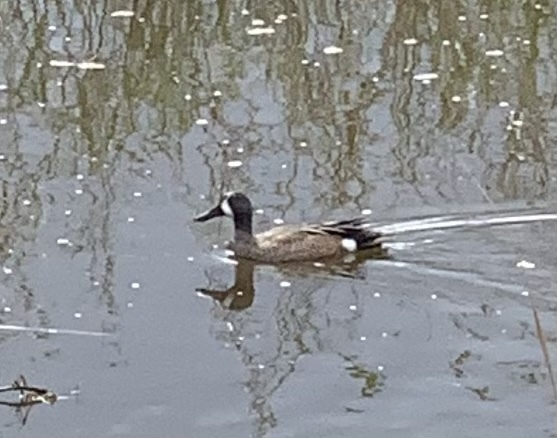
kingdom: Animalia
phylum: Chordata
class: Aves
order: Anseriformes
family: Anatidae
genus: Spatula
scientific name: Spatula discors
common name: Blue-winged teal
